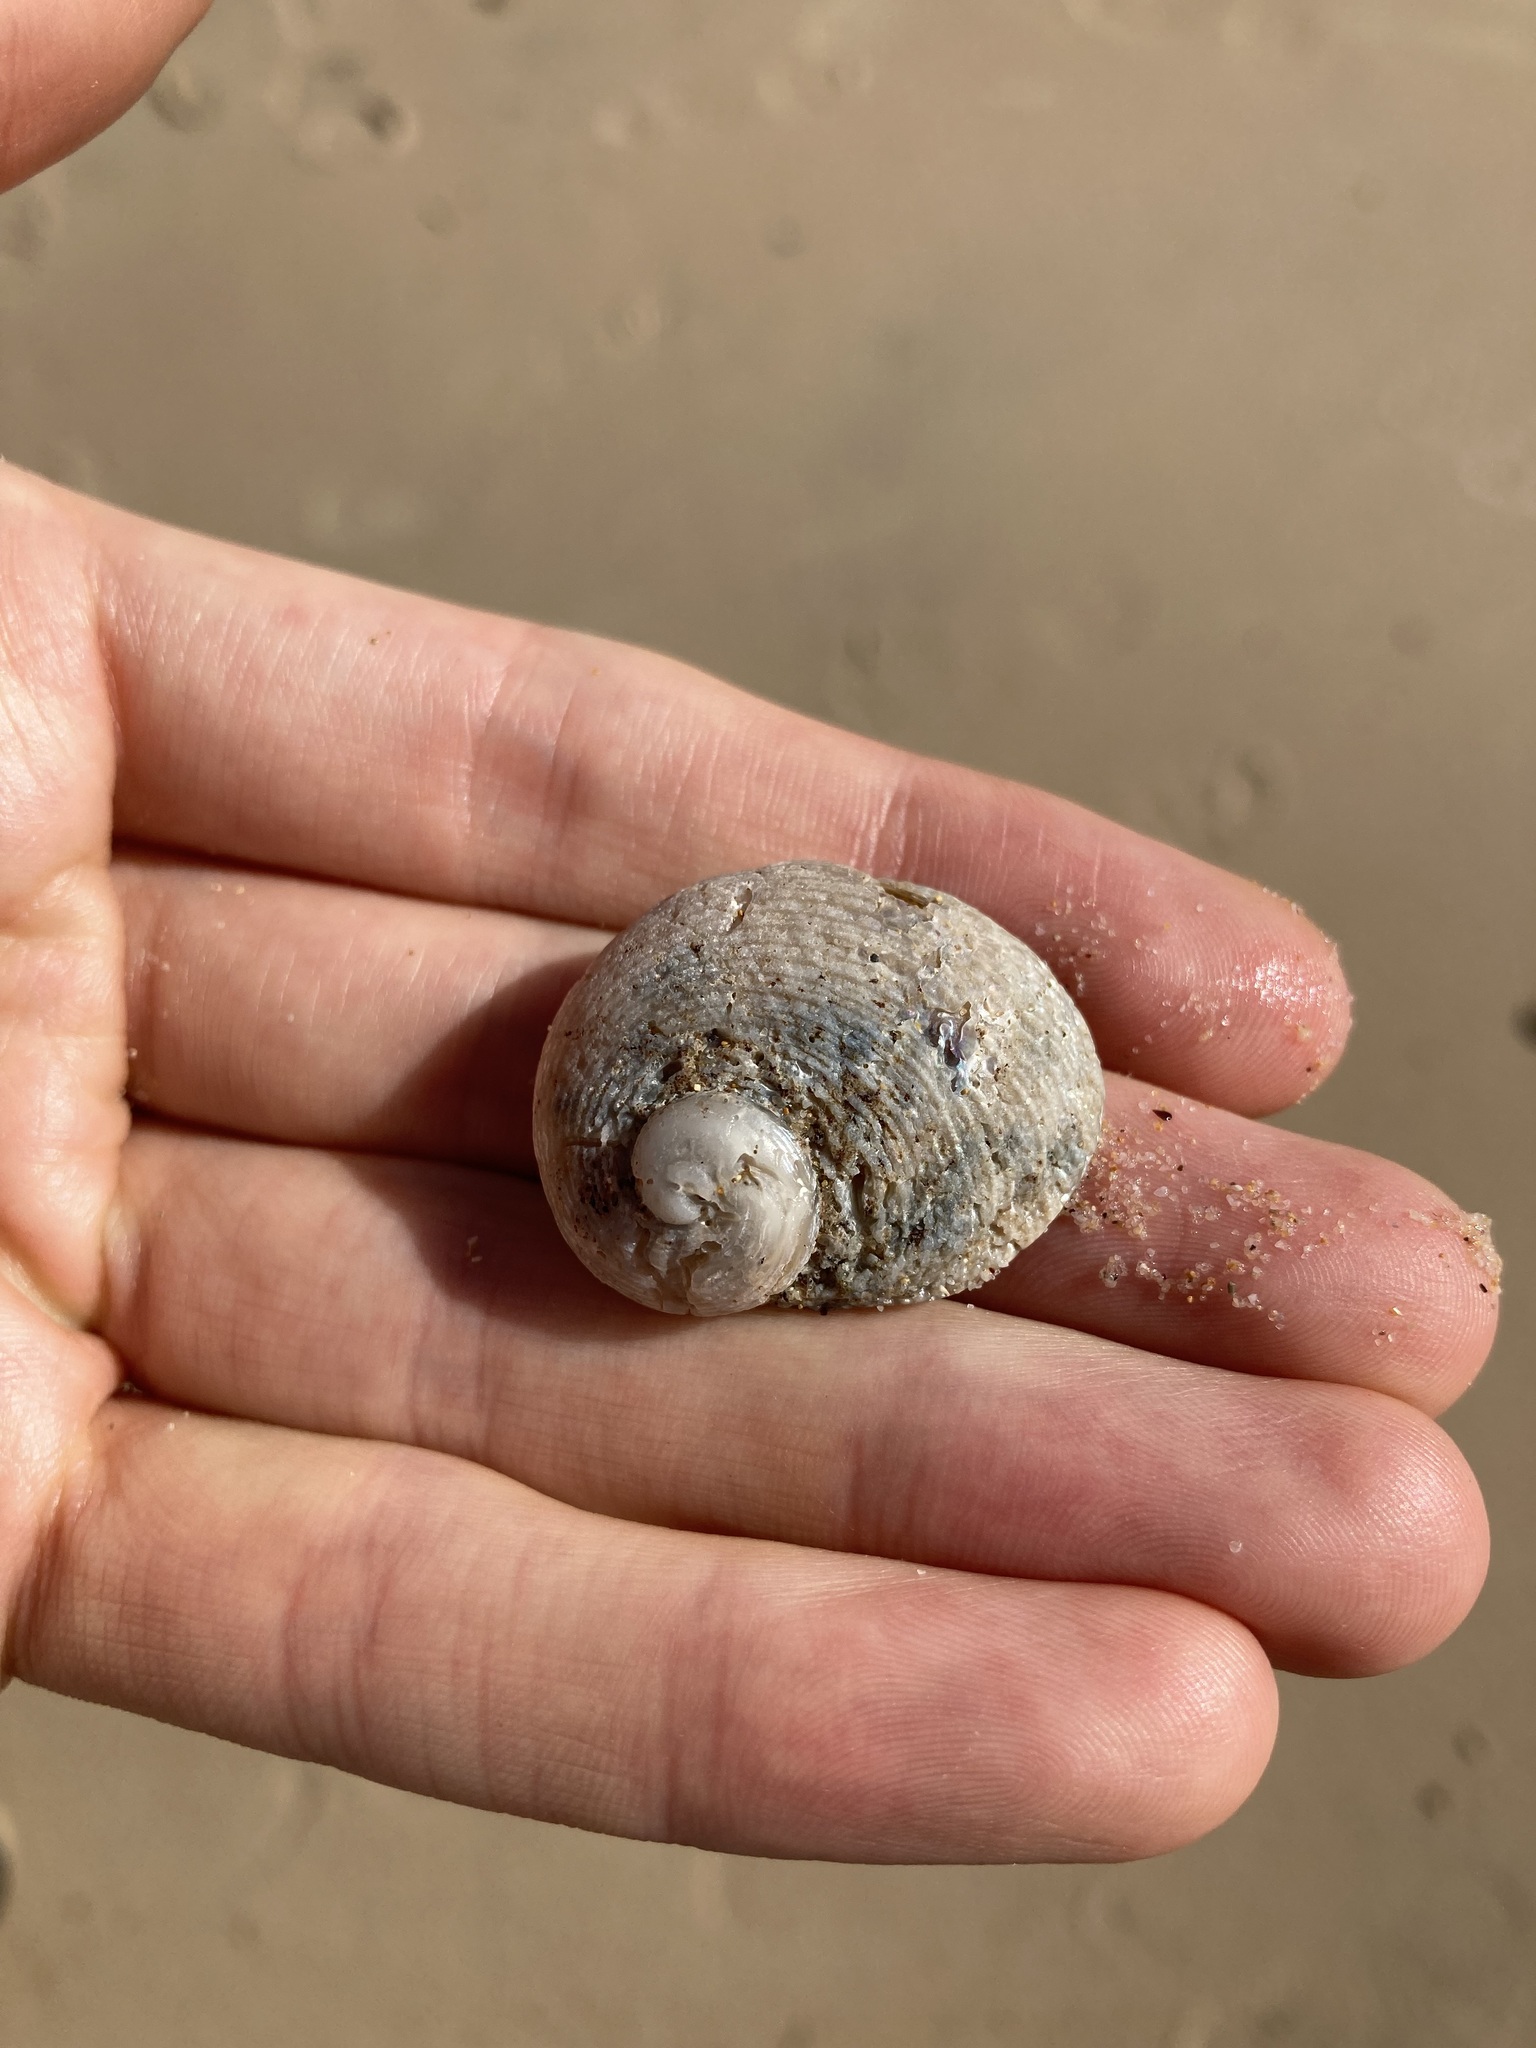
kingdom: Animalia
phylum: Mollusca
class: Gastropoda
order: Seguenziida
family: Chilodontaidae
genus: Granata
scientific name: Granata imbricata
